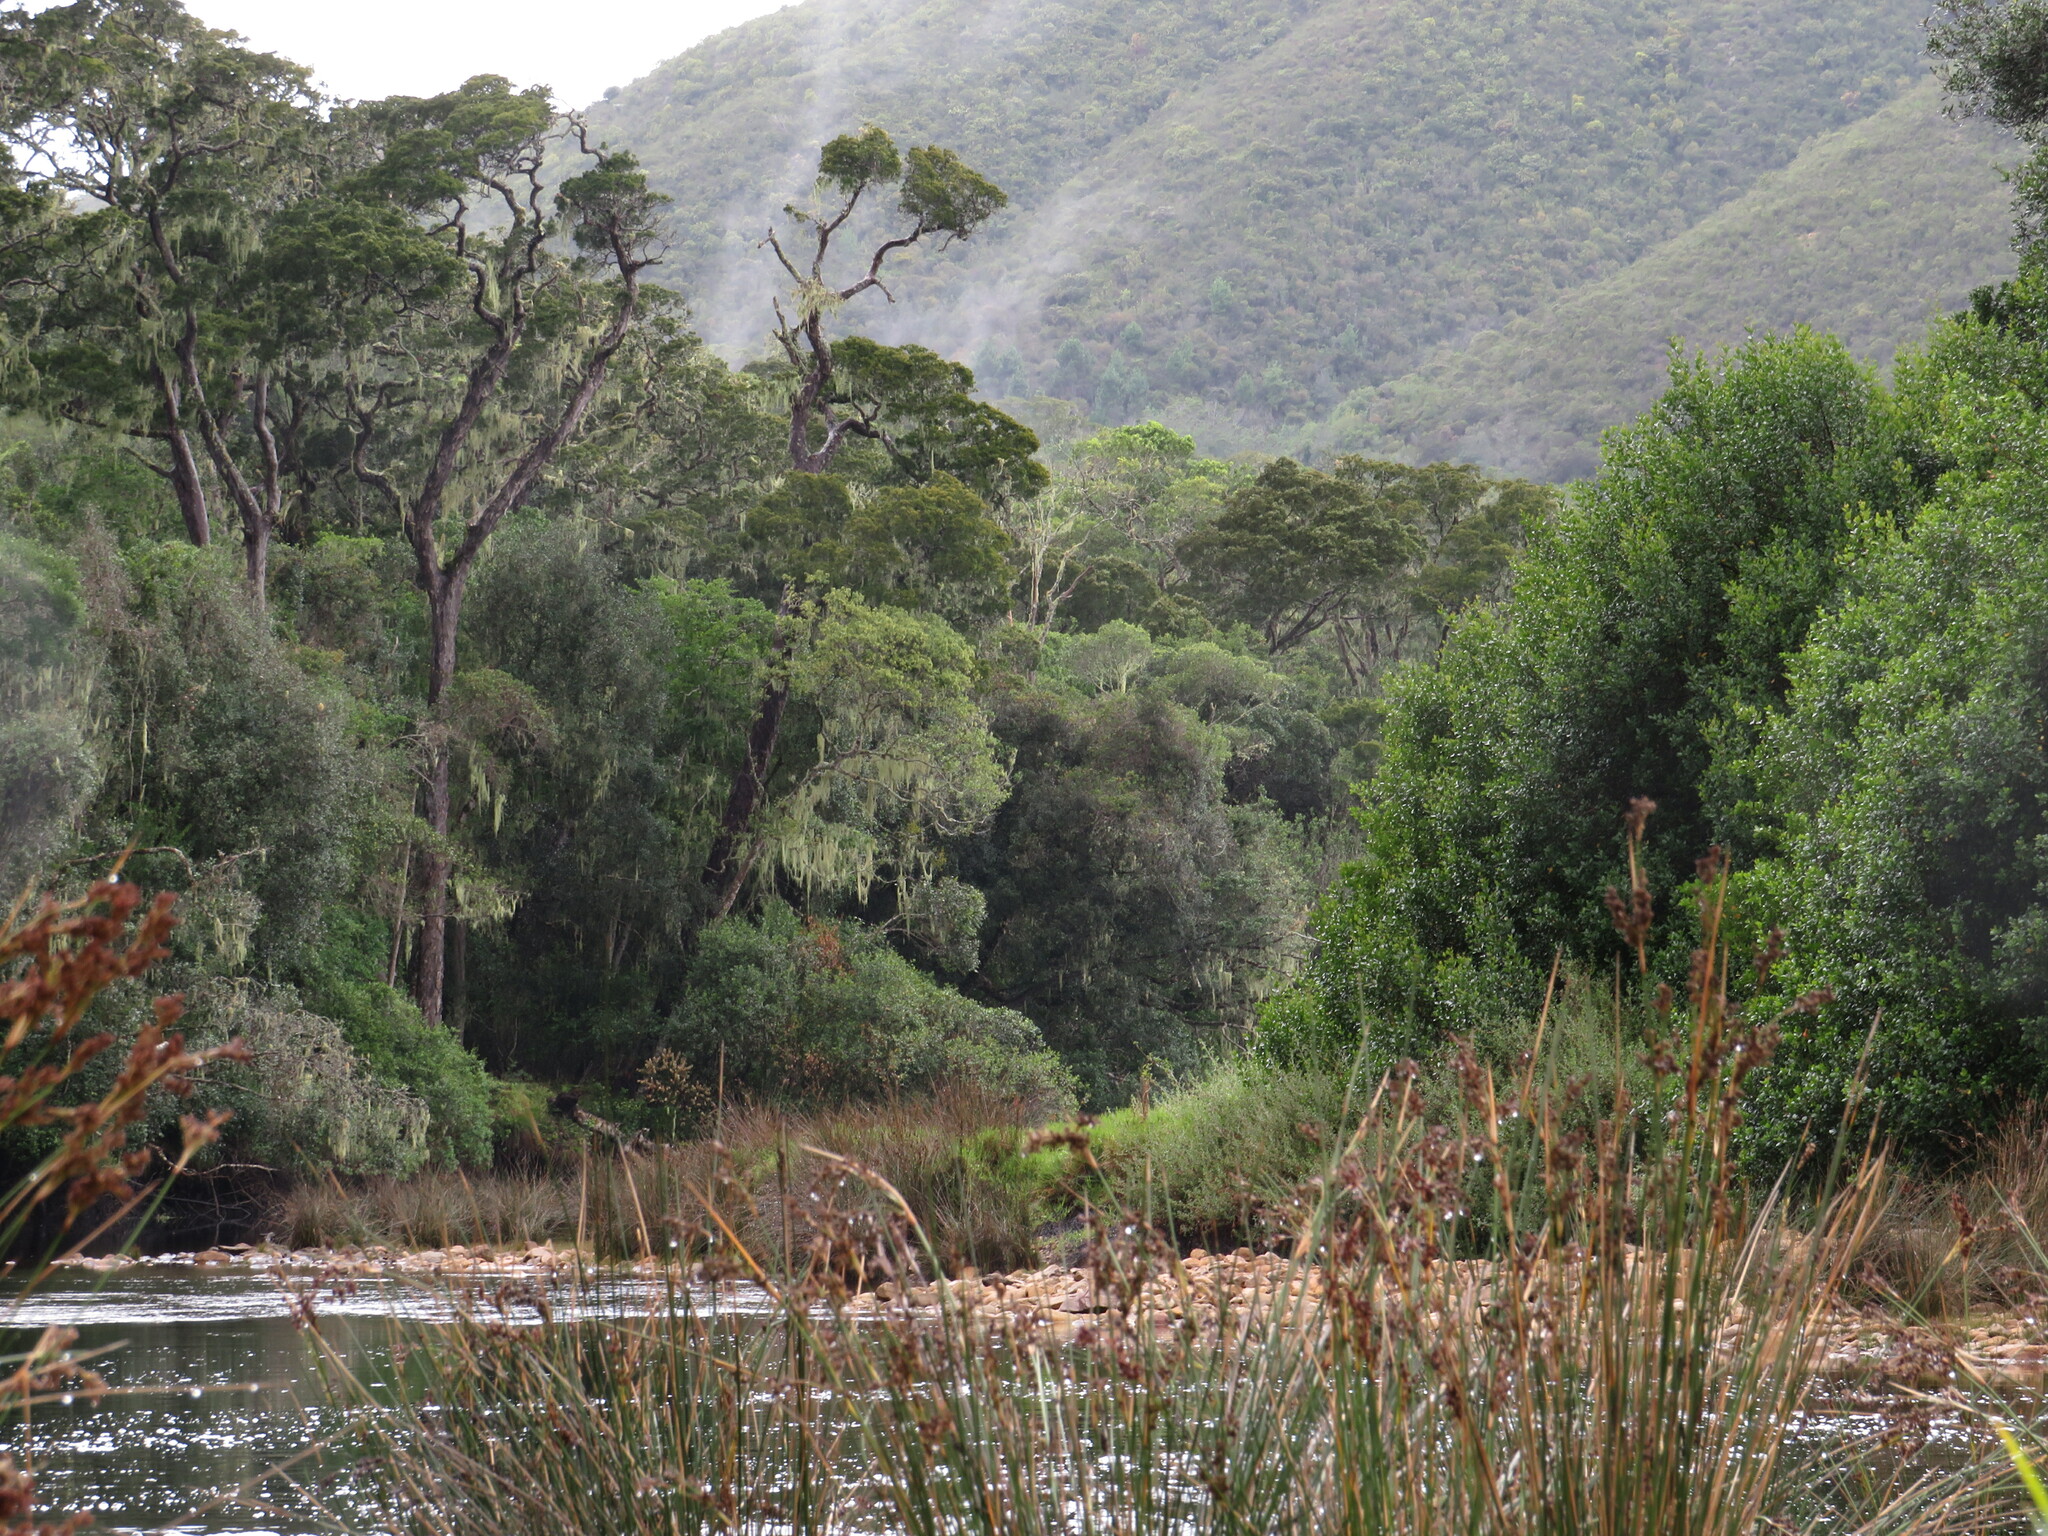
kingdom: Plantae
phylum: Tracheophyta
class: Pinopsida
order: Pinales
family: Podocarpaceae
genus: Afrocarpus
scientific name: Afrocarpus falcatus
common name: Bastard yellowwood
